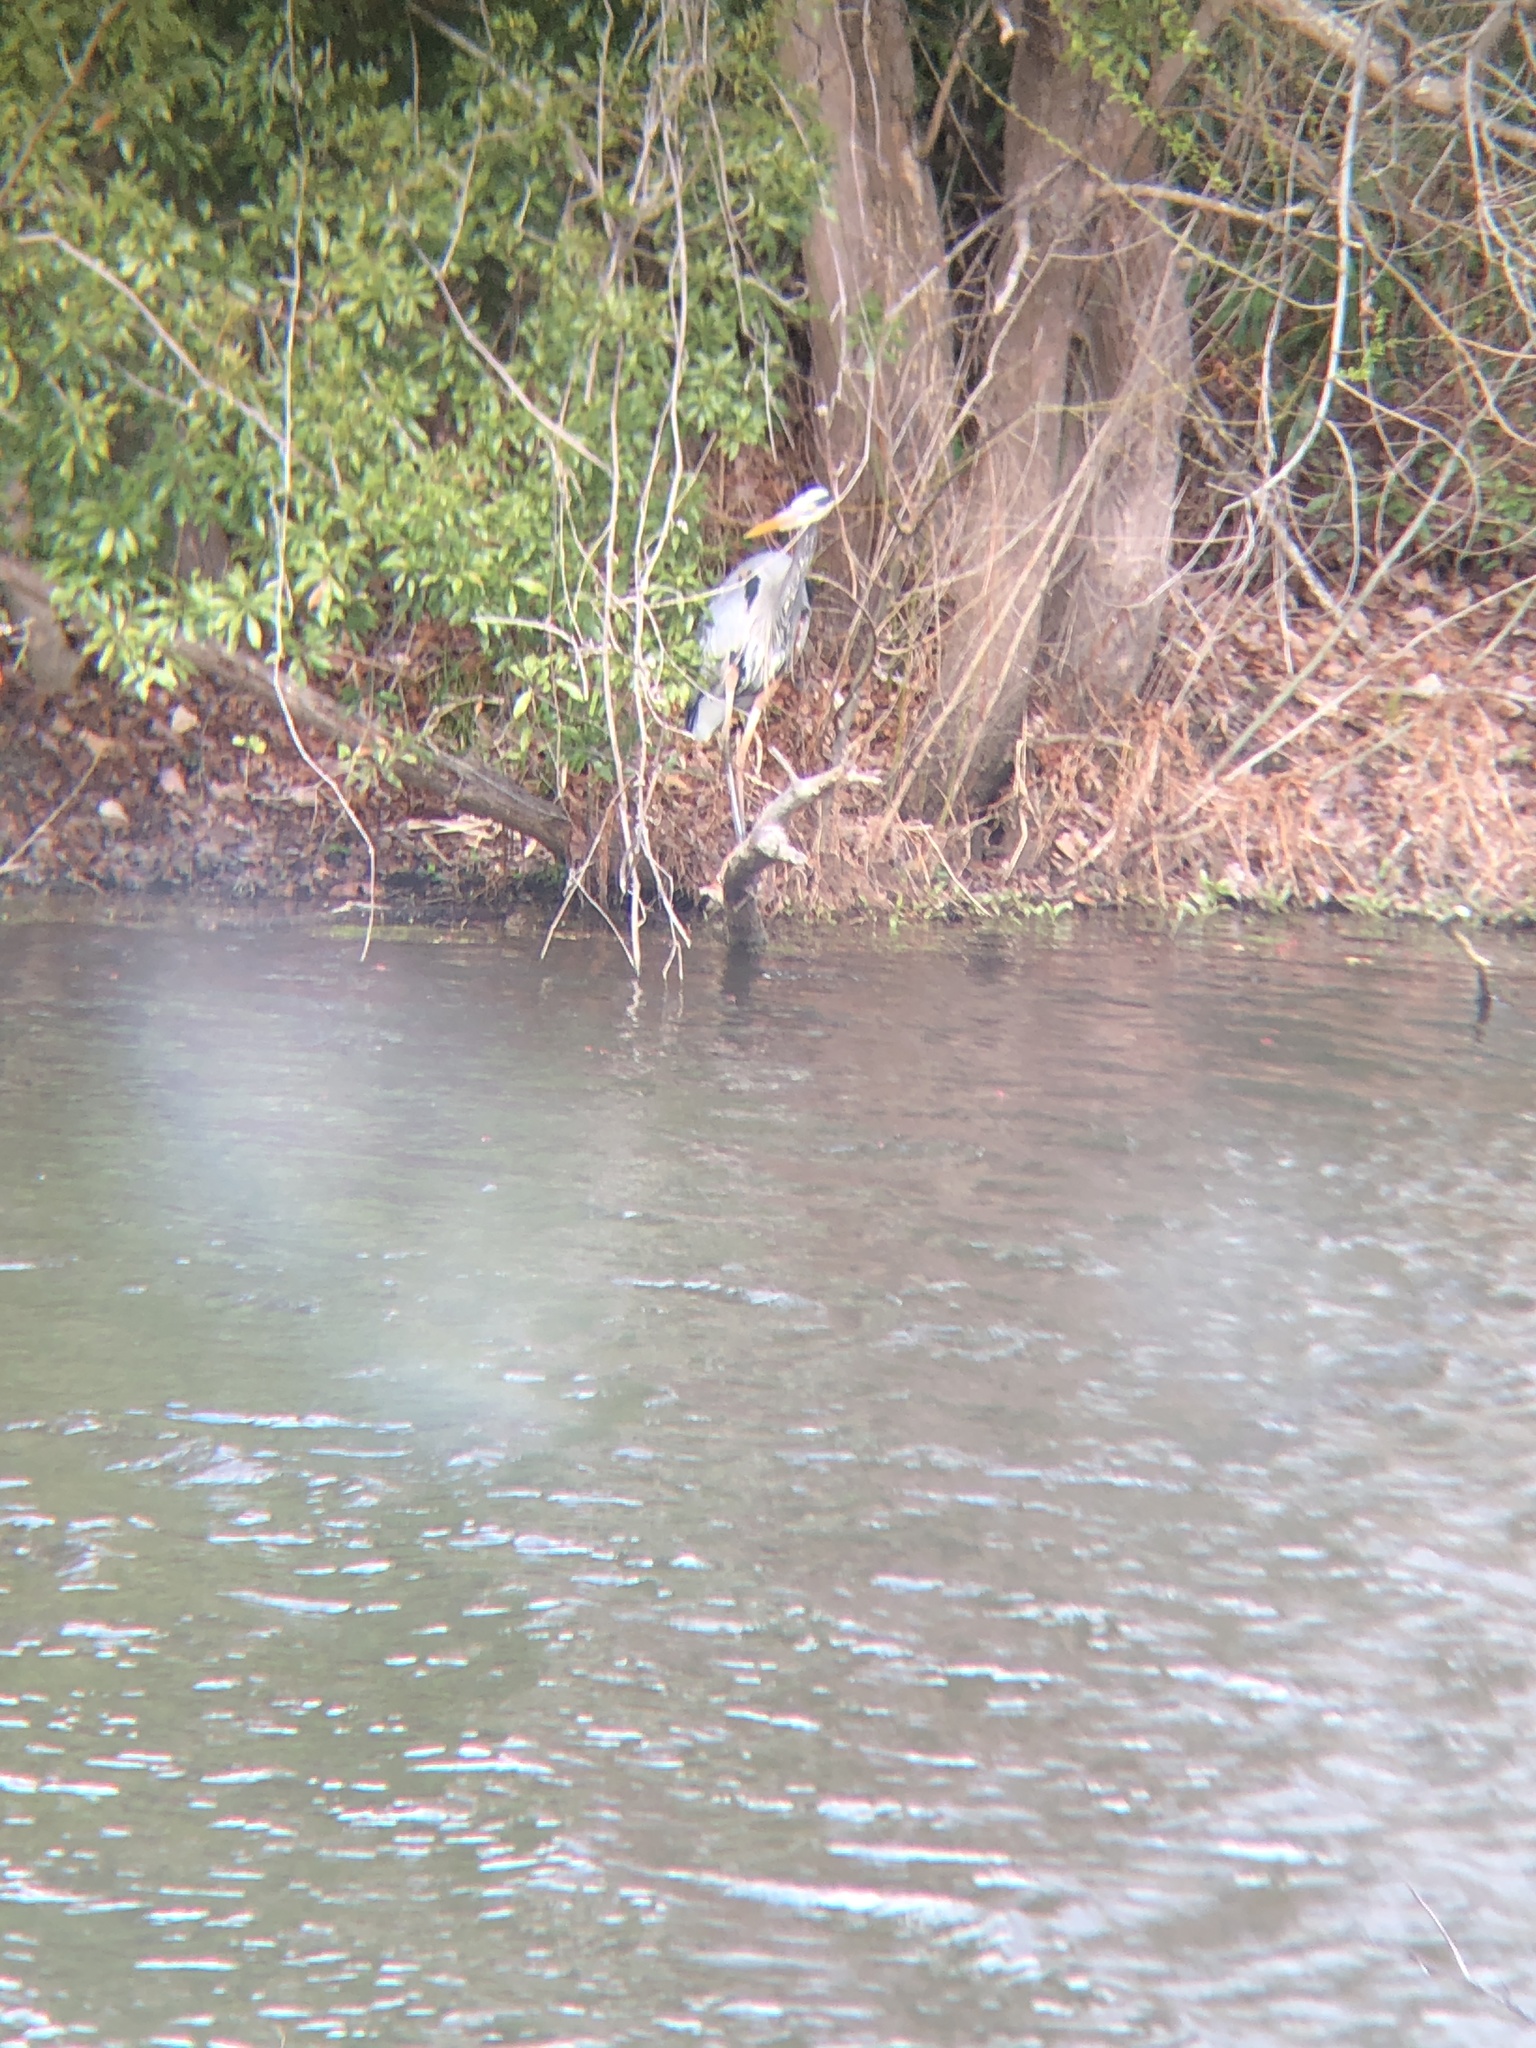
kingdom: Animalia
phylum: Chordata
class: Aves
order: Pelecaniformes
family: Ardeidae
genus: Ardea
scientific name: Ardea herodias
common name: Great blue heron
